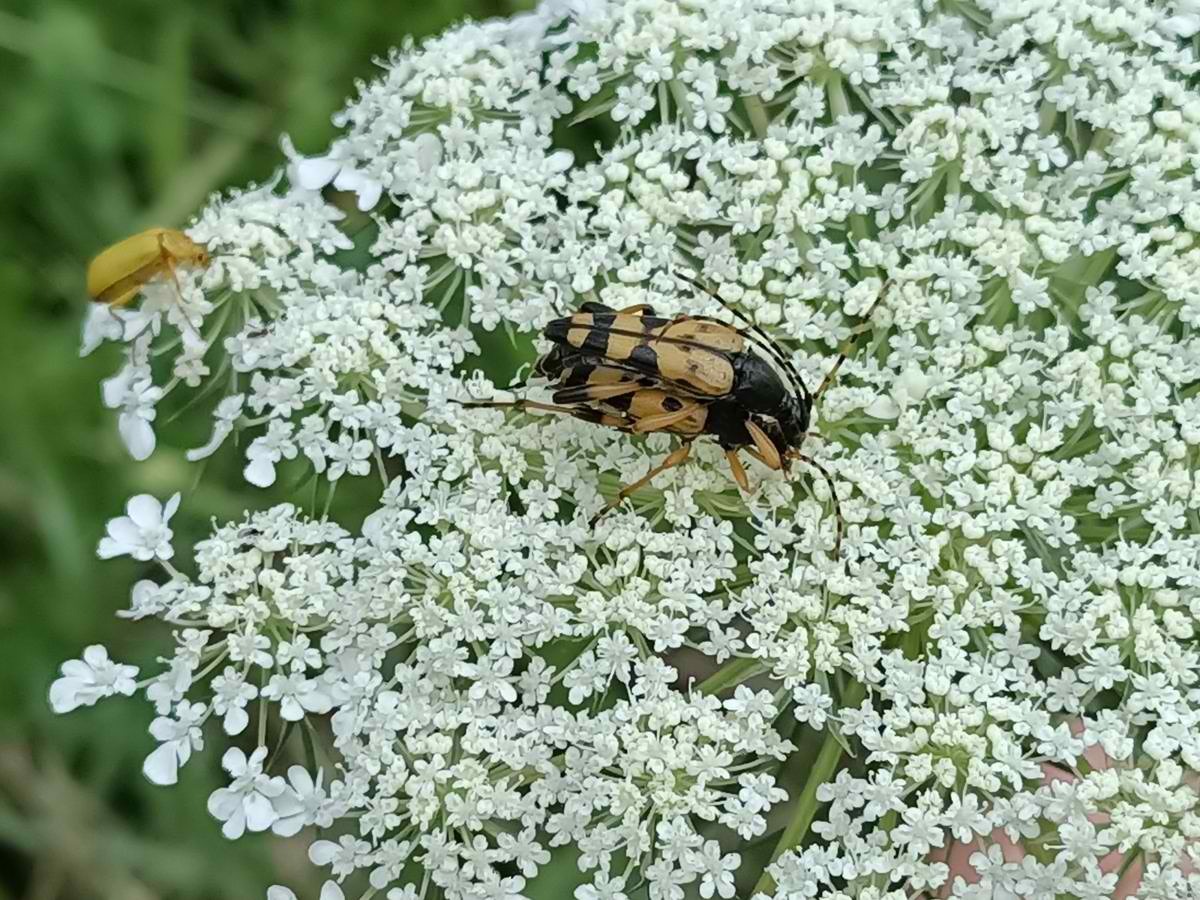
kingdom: Animalia
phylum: Arthropoda
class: Insecta
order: Coleoptera
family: Cerambycidae
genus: Rutpela
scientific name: Rutpela maculata
